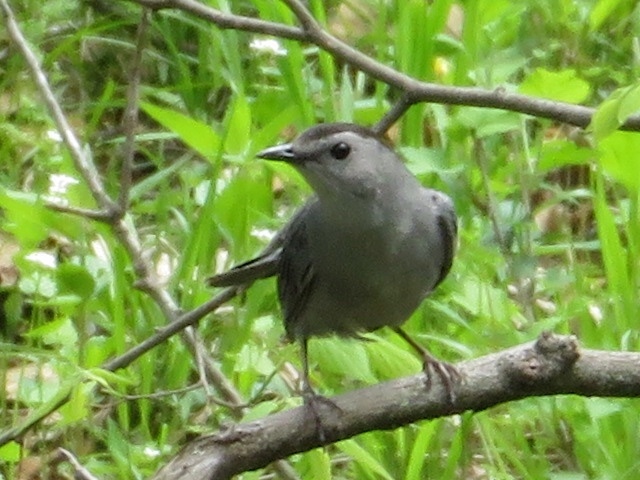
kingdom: Animalia
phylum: Chordata
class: Aves
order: Passeriformes
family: Mimidae
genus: Dumetella
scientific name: Dumetella carolinensis
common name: Gray catbird
